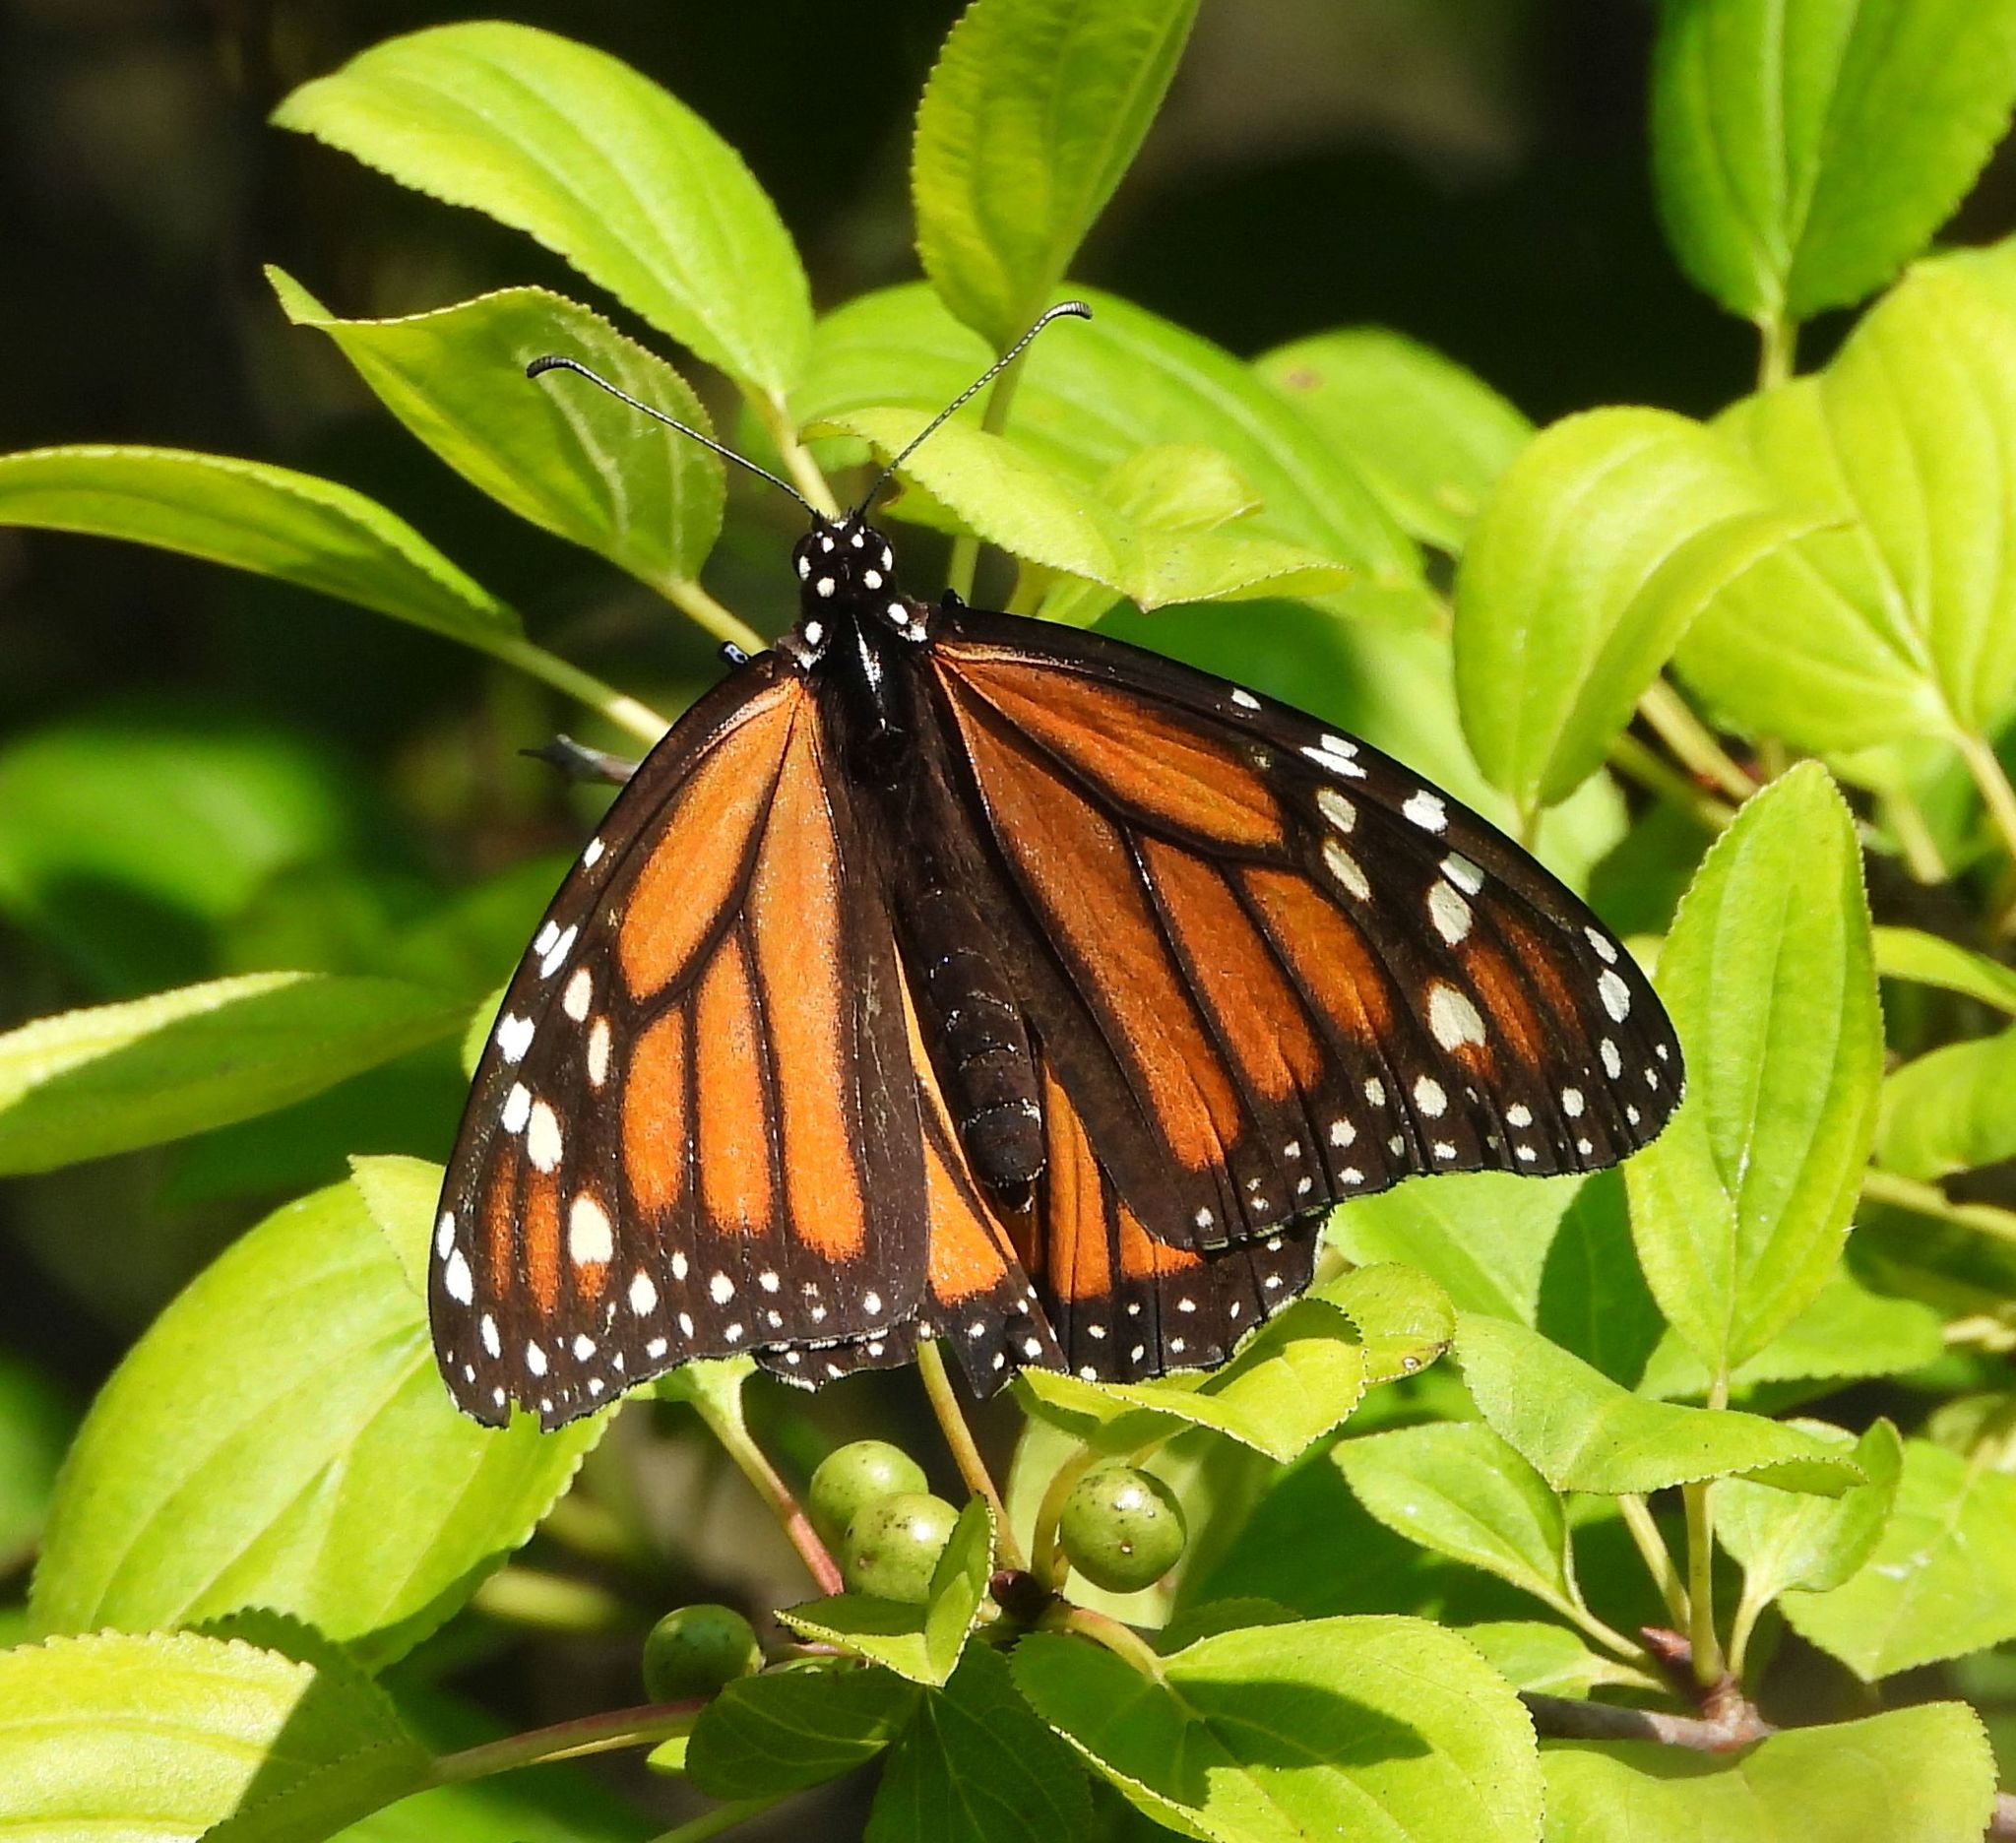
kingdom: Animalia
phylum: Arthropoda
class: Insecta
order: Lepidoptera
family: Nymphalidae
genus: Danaus
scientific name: Danaus plexippus
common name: Monarch
